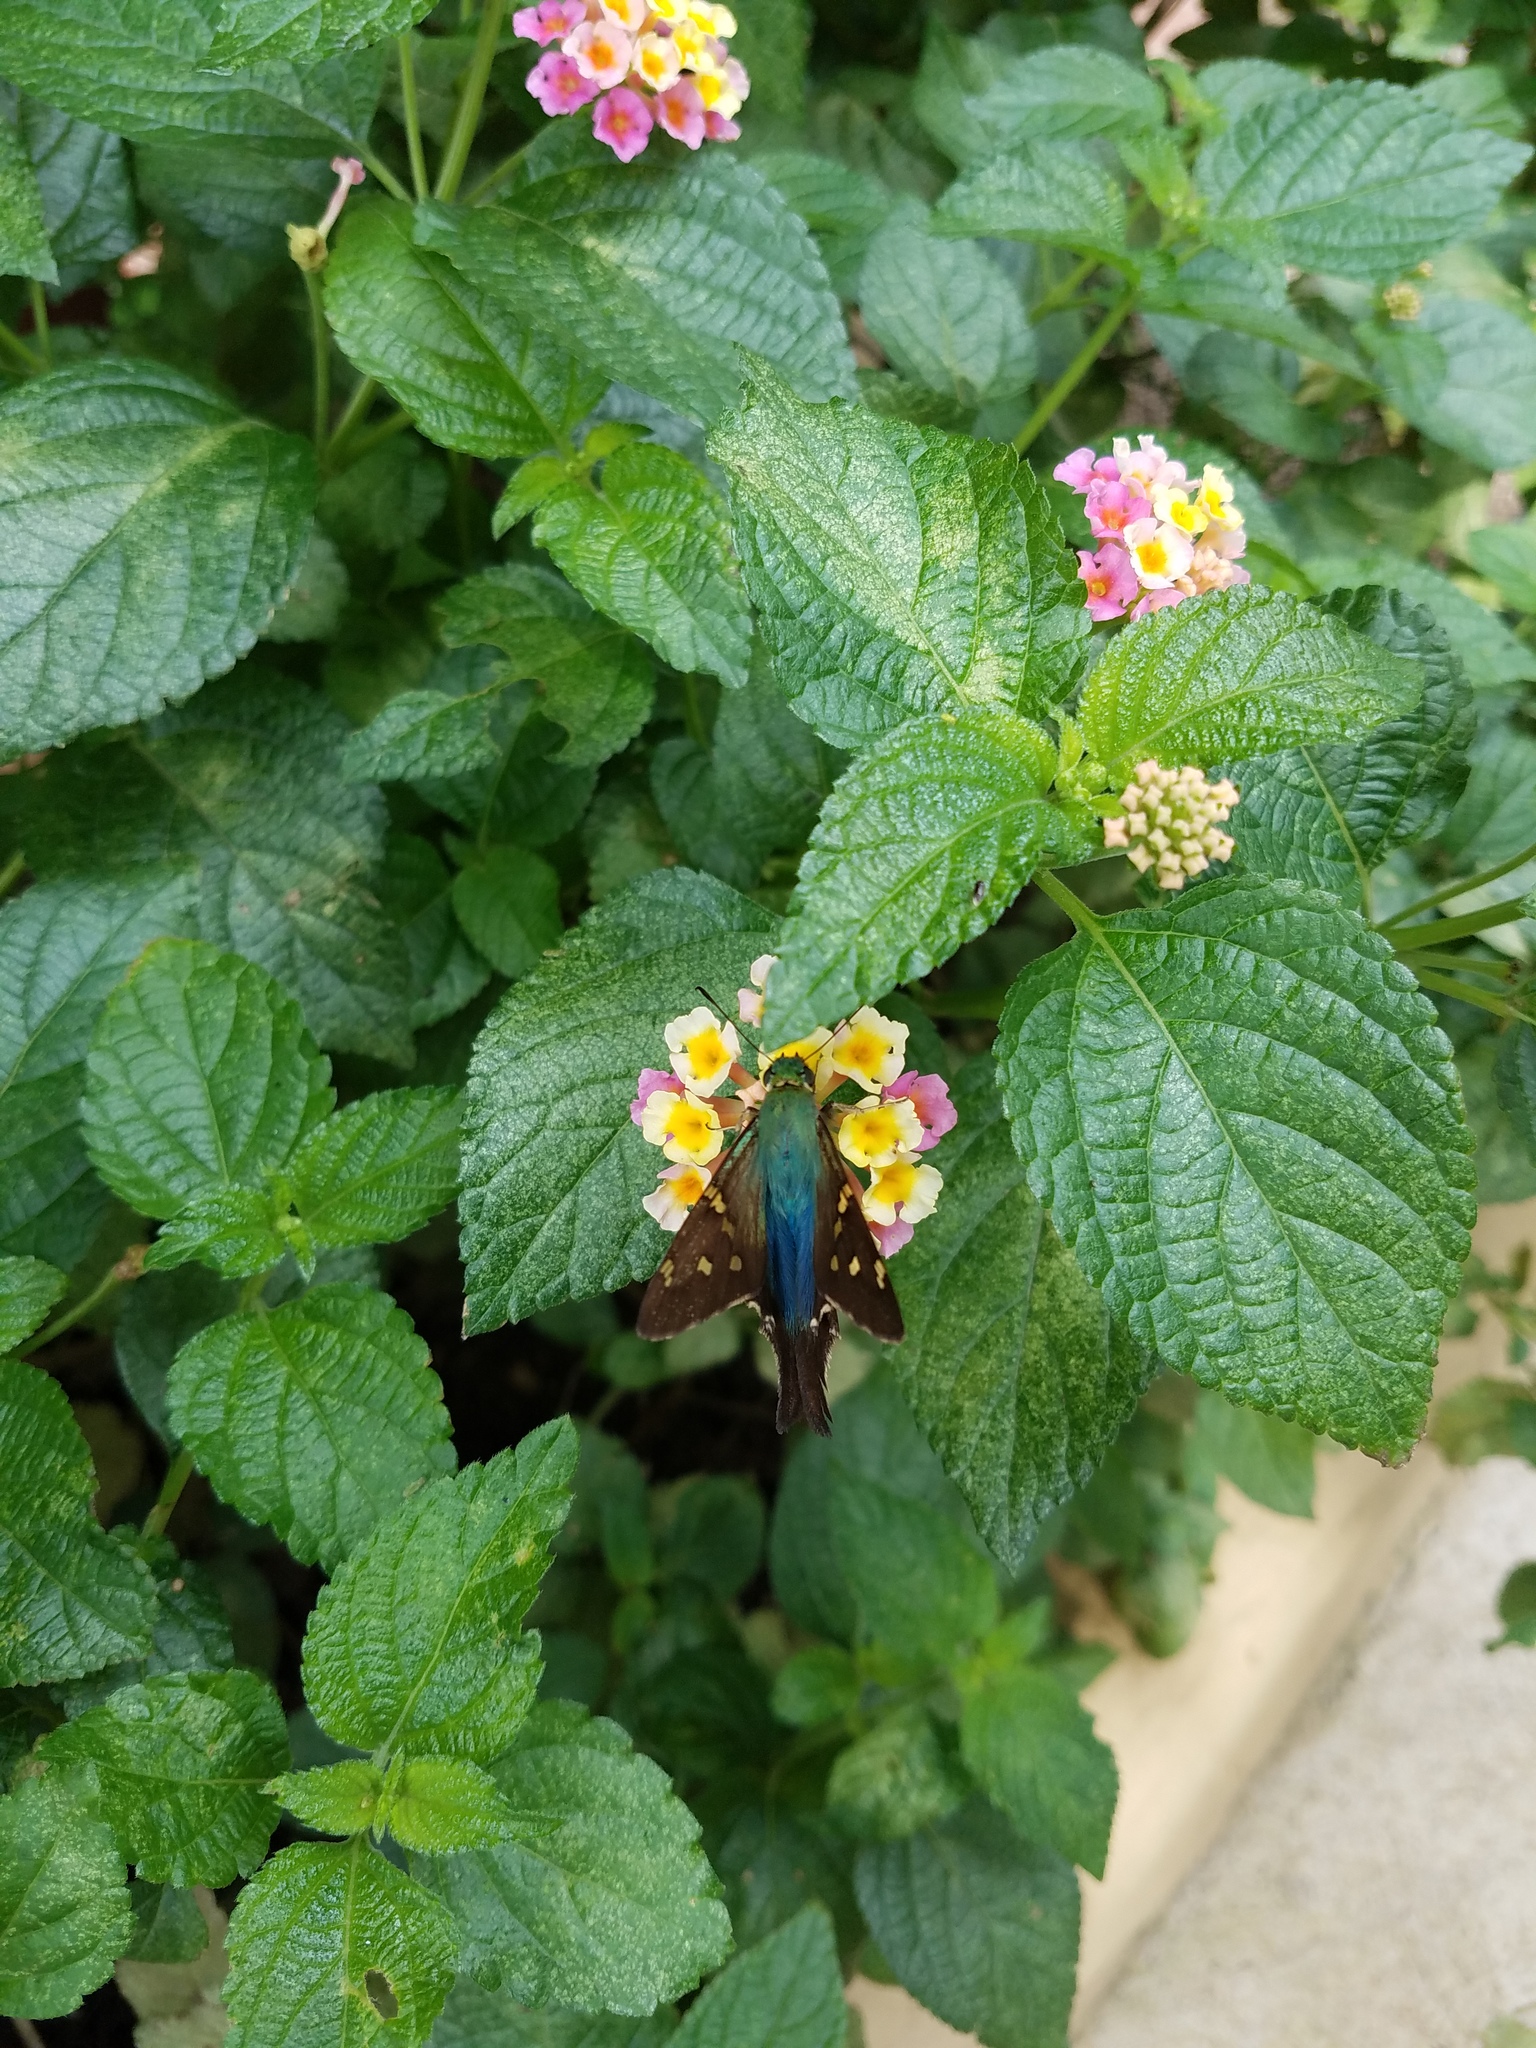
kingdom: Animalia
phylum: Arthropoda
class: Insecta
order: Lepidoptera
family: Hesperiidae
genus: Urbanus
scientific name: Urbanus proteus
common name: Long-tailed skipper
